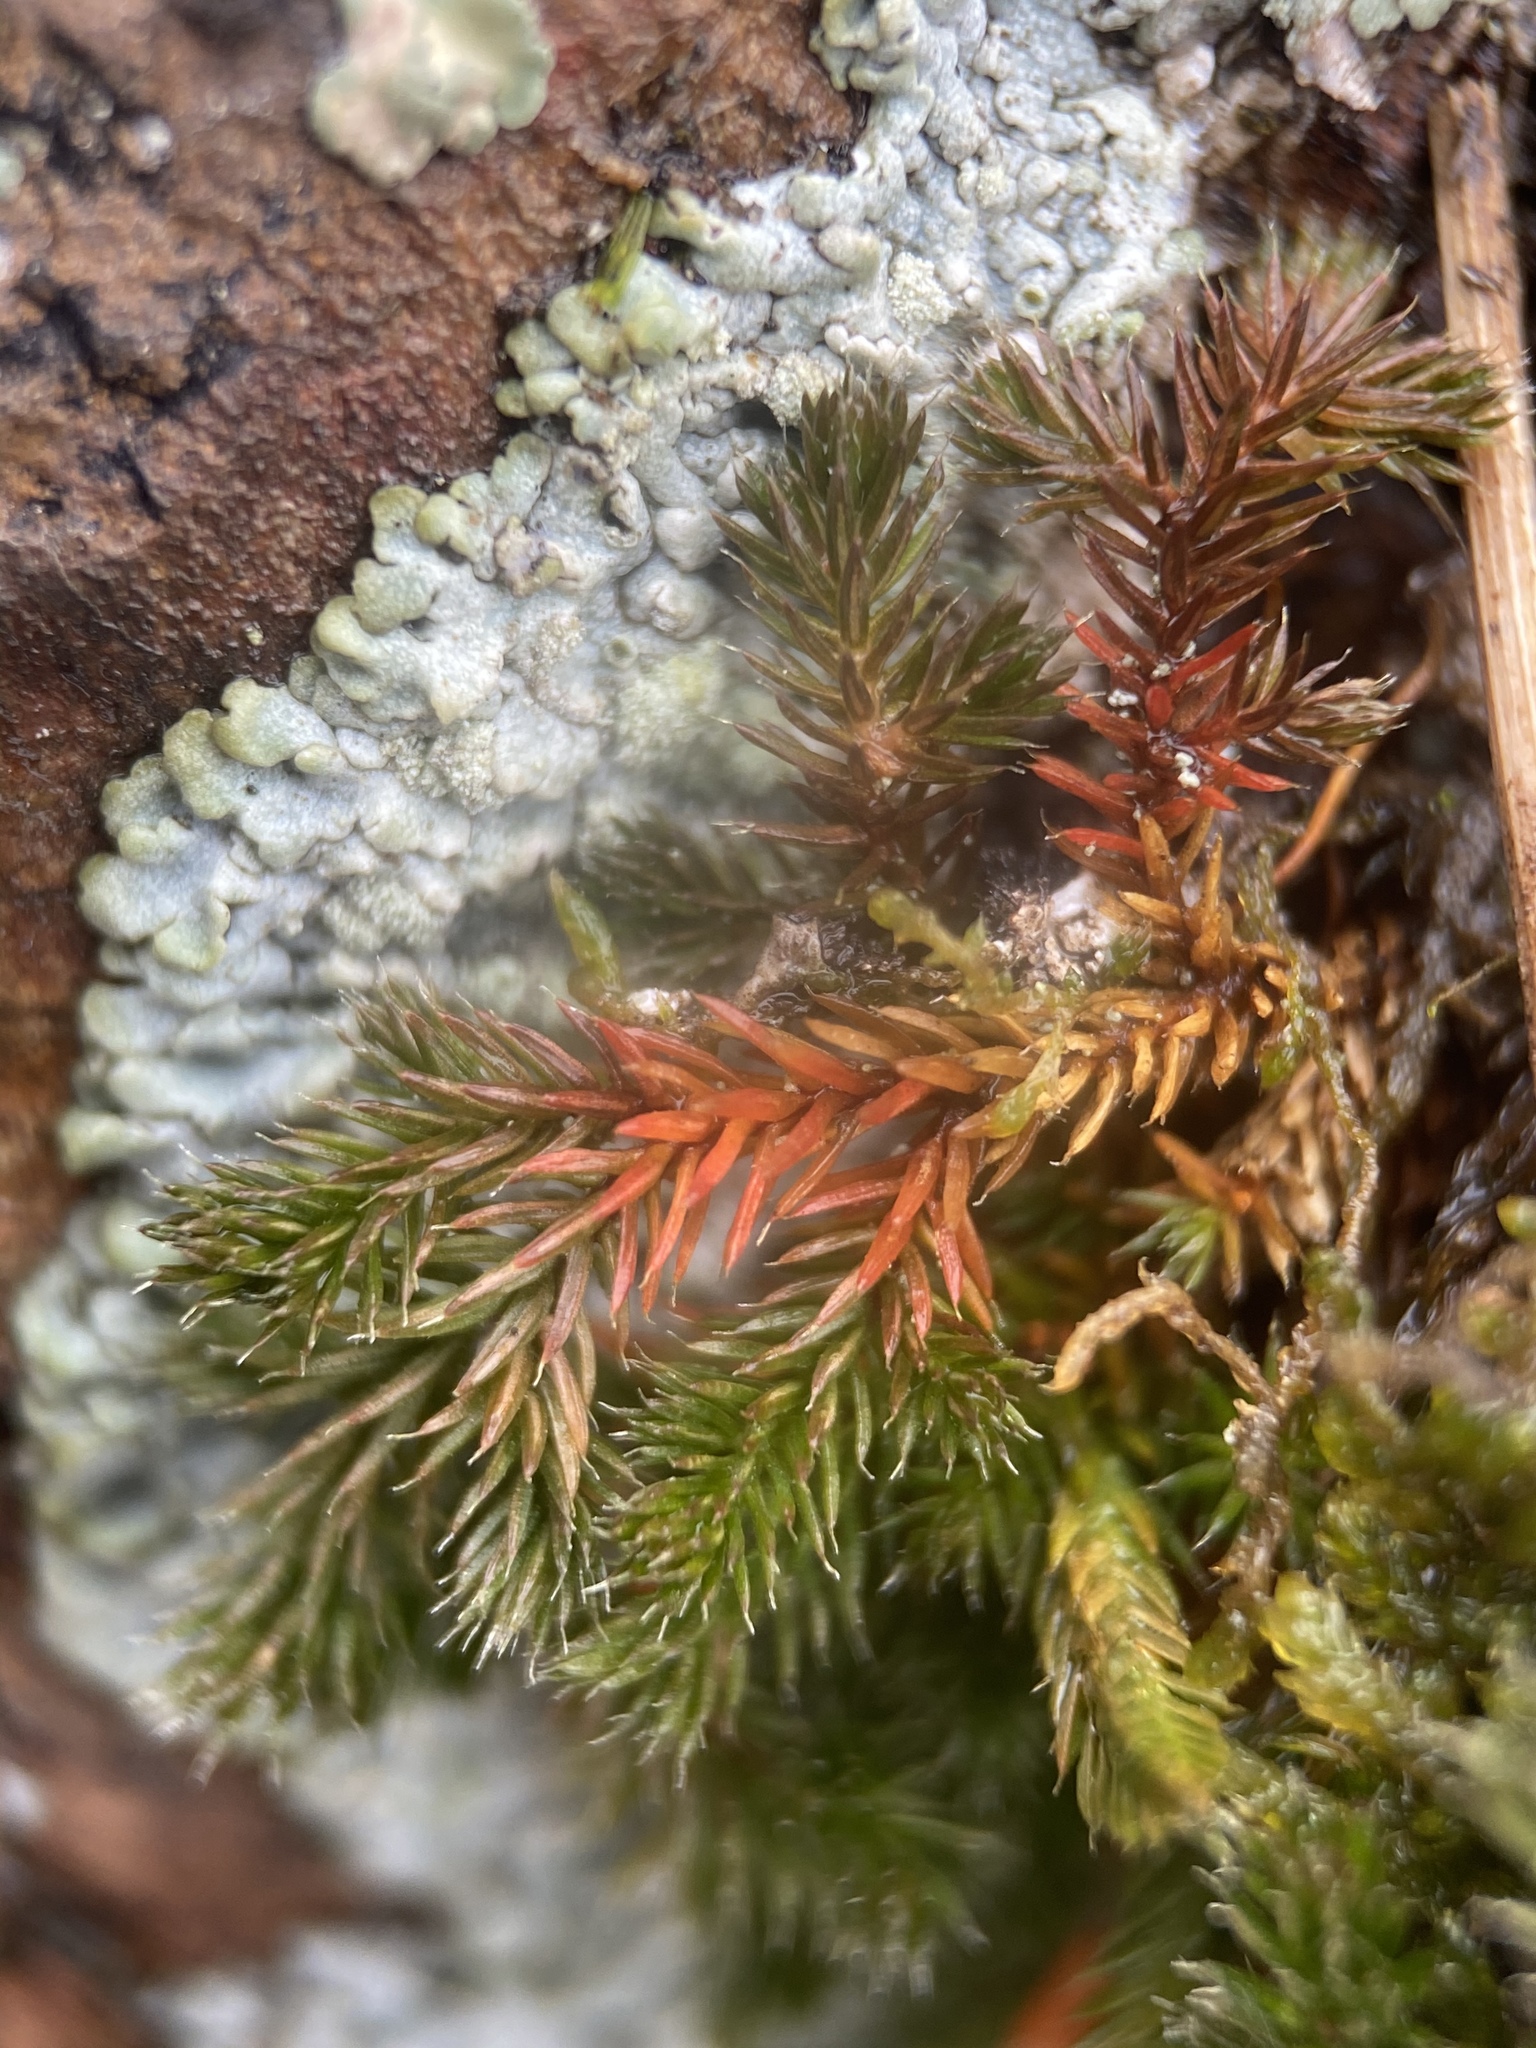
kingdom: Plantae
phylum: Tracheophyta
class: Lycopodiopsida
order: Selaginellales
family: Selaginellaceae
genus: Selaginella
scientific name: Selaginella densa
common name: Mountain spike-moss
